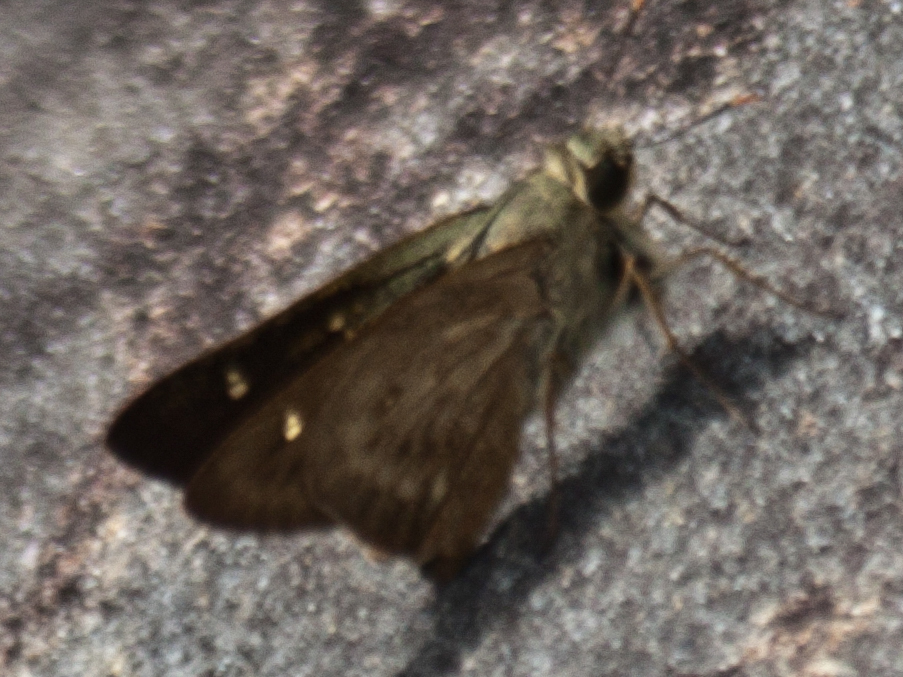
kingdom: Animalia
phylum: Arthropoda
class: Insecta
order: Lepidoptera
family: Hesperiidae
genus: Pithauria
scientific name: Pithauria stramineipennis
